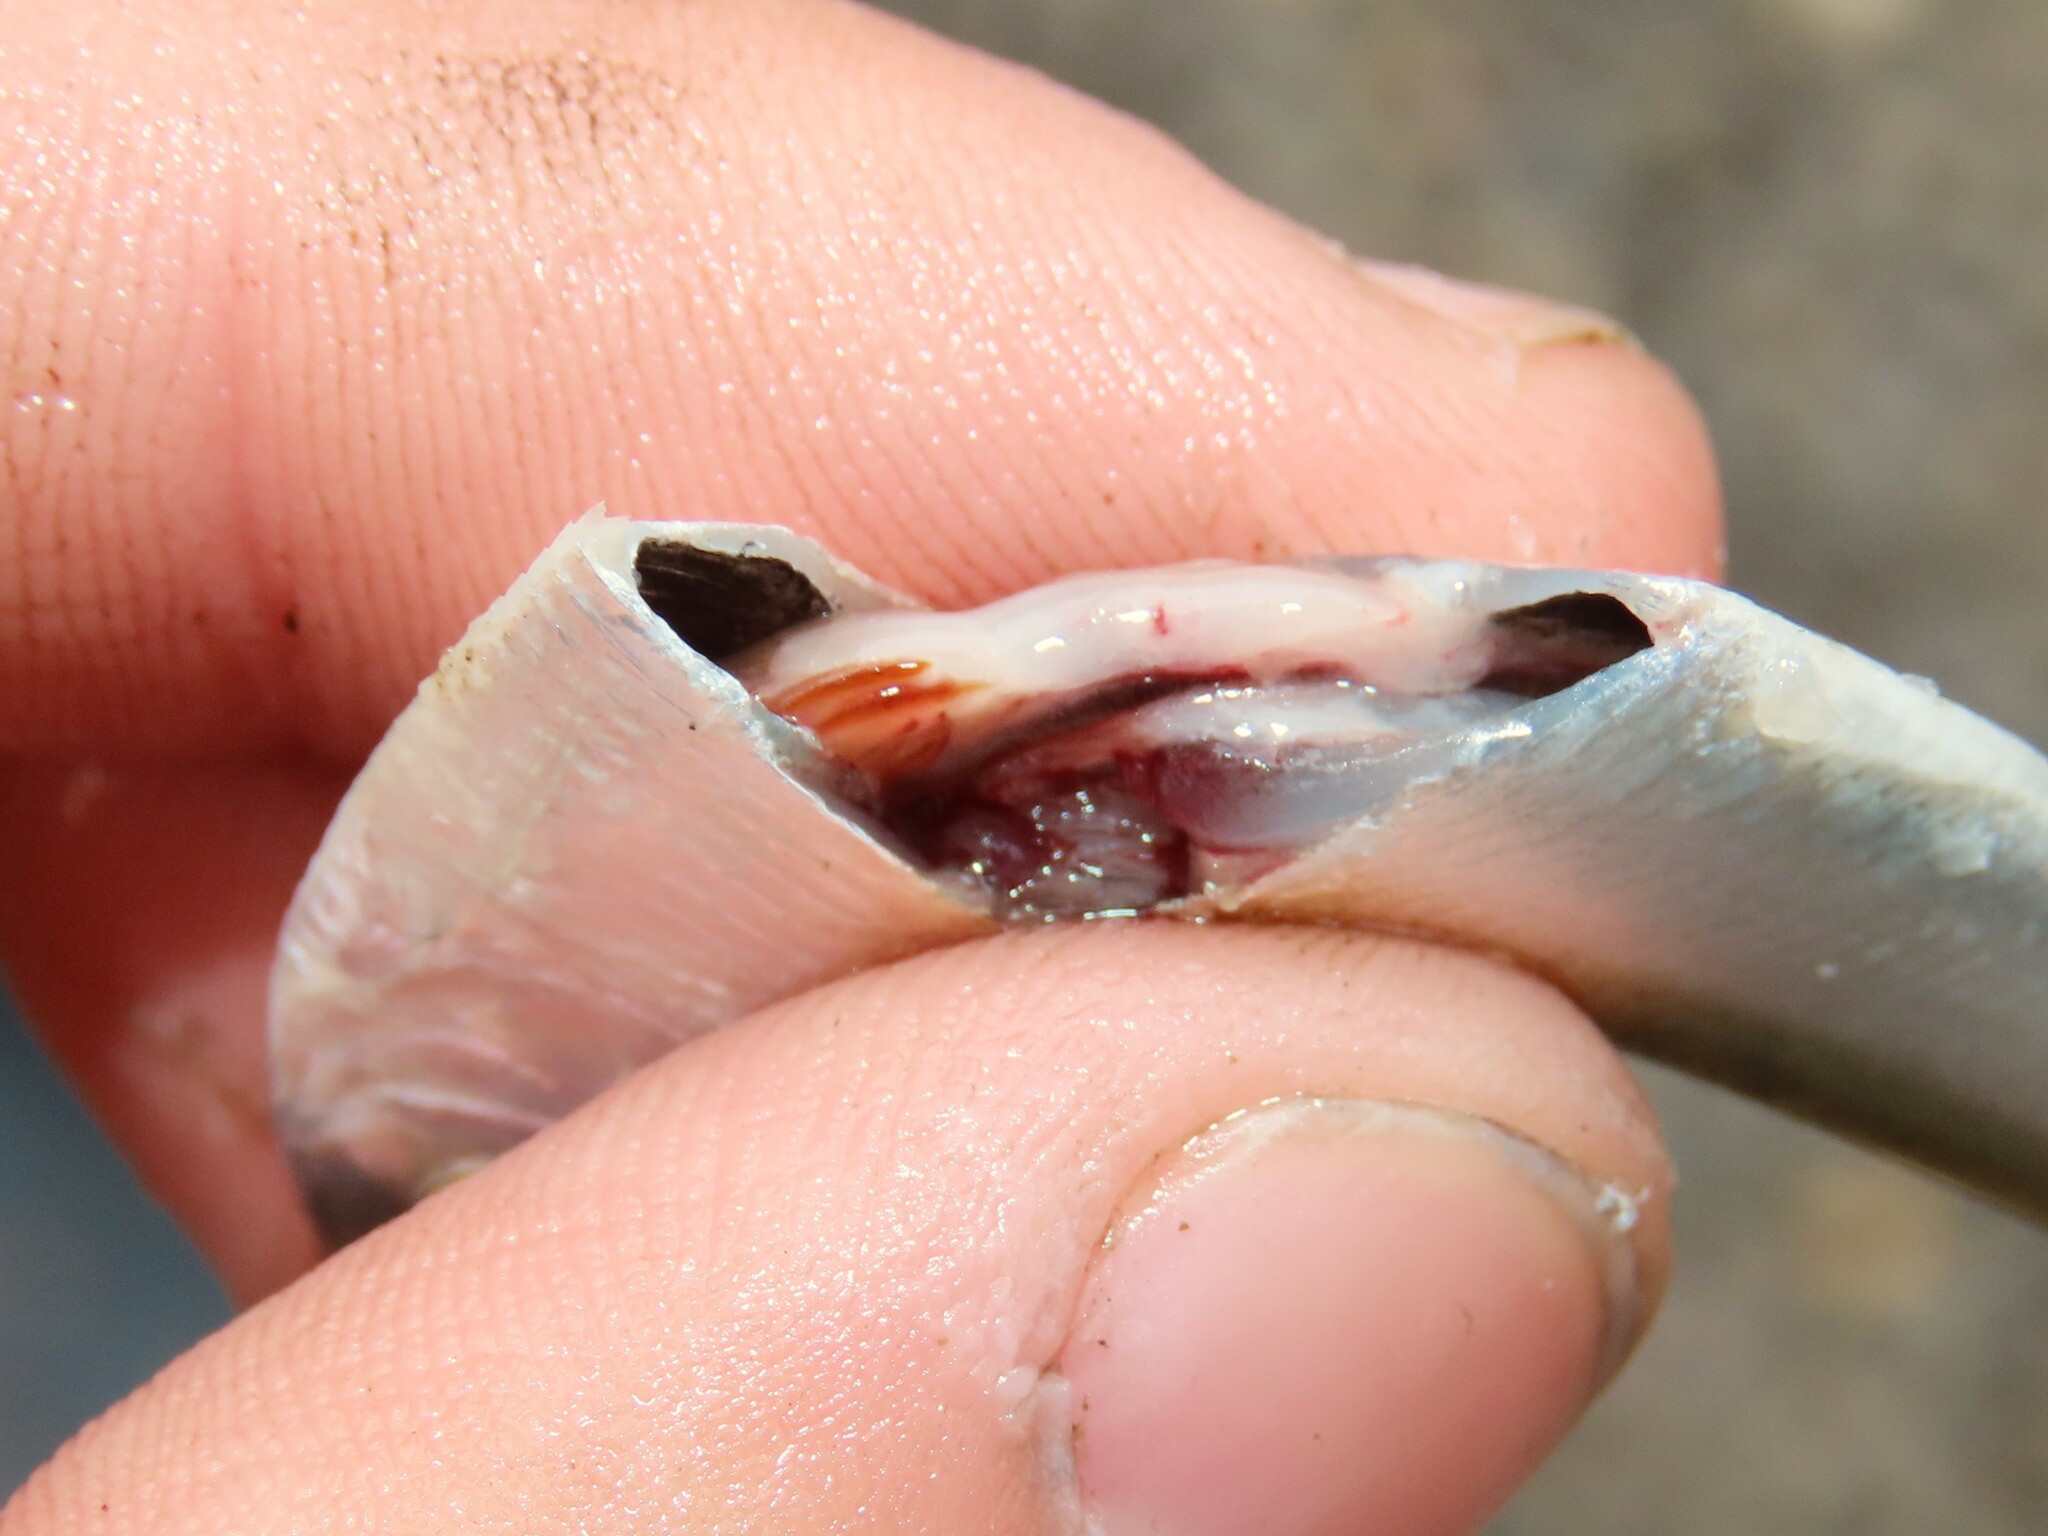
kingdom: Animalia
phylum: Chordata
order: Clupeiformes
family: Clupeidae
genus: Alosa
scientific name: Alosa aestivalis
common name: Blueback herring
